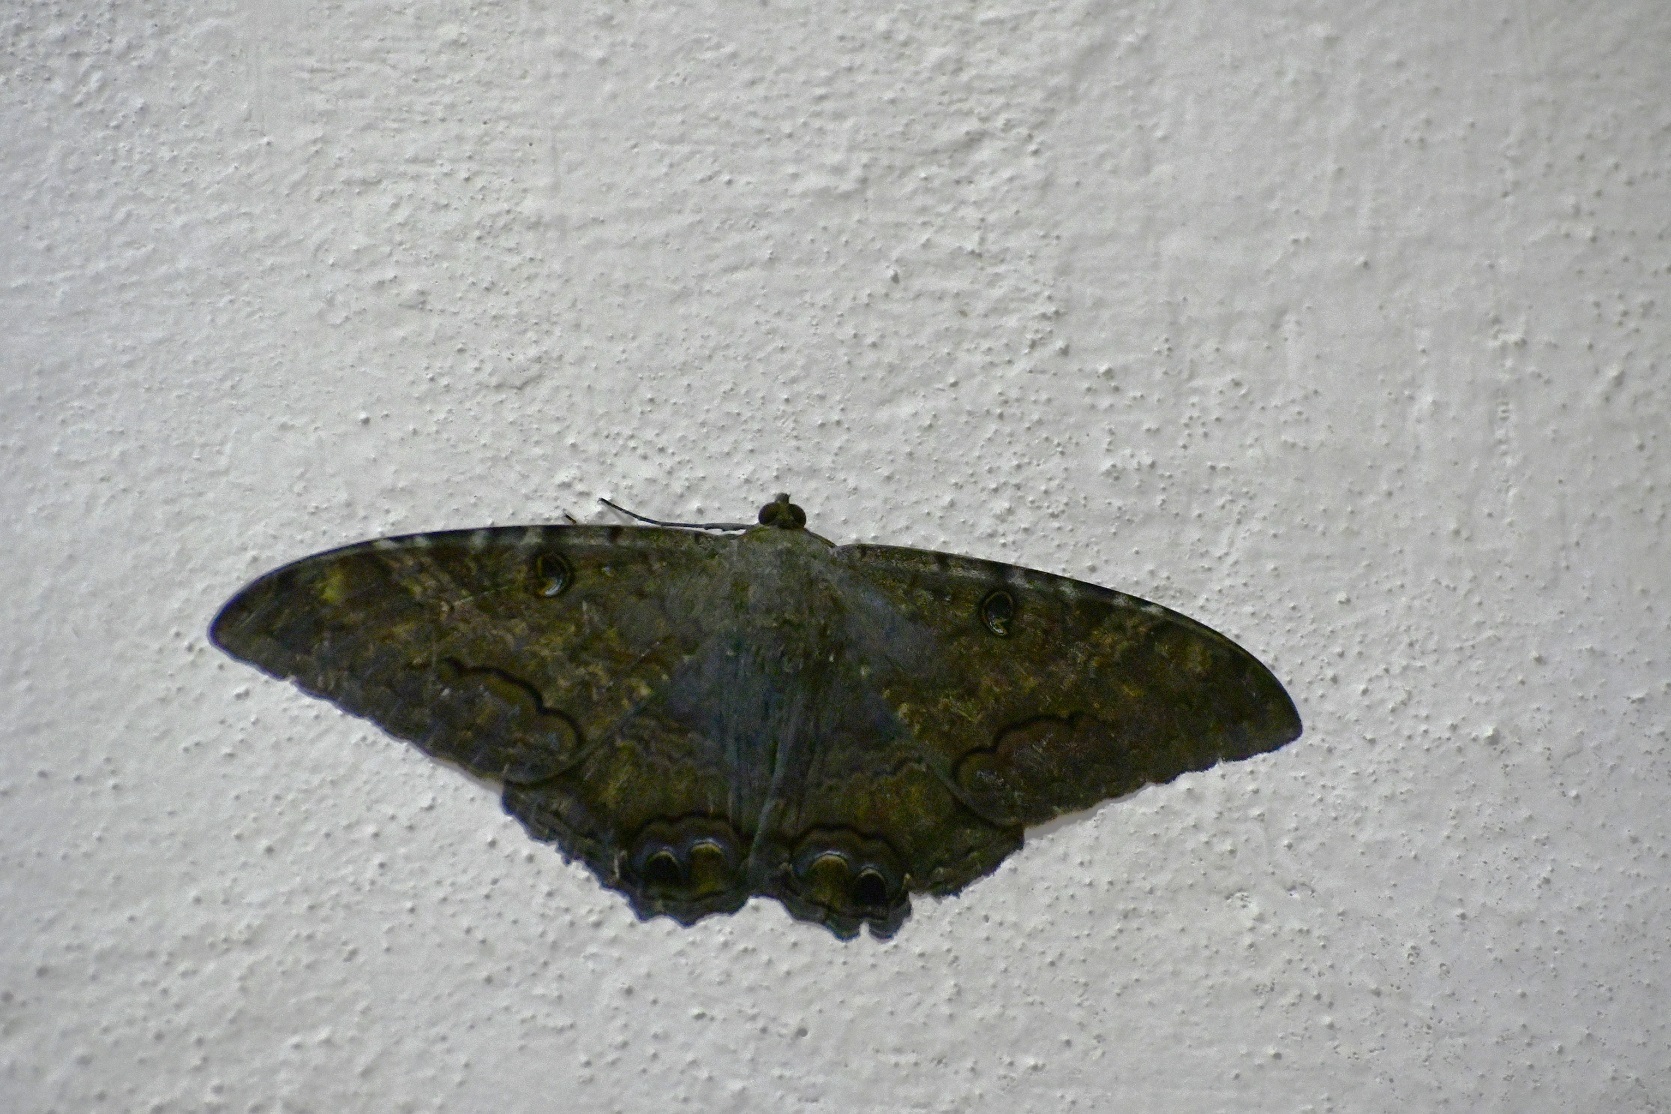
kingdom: Animalia
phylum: Arthropoda
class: Insecta
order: Lepidoptera
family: Erebidae
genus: Ascalapha
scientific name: Ascalapha odorata
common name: Black witch
